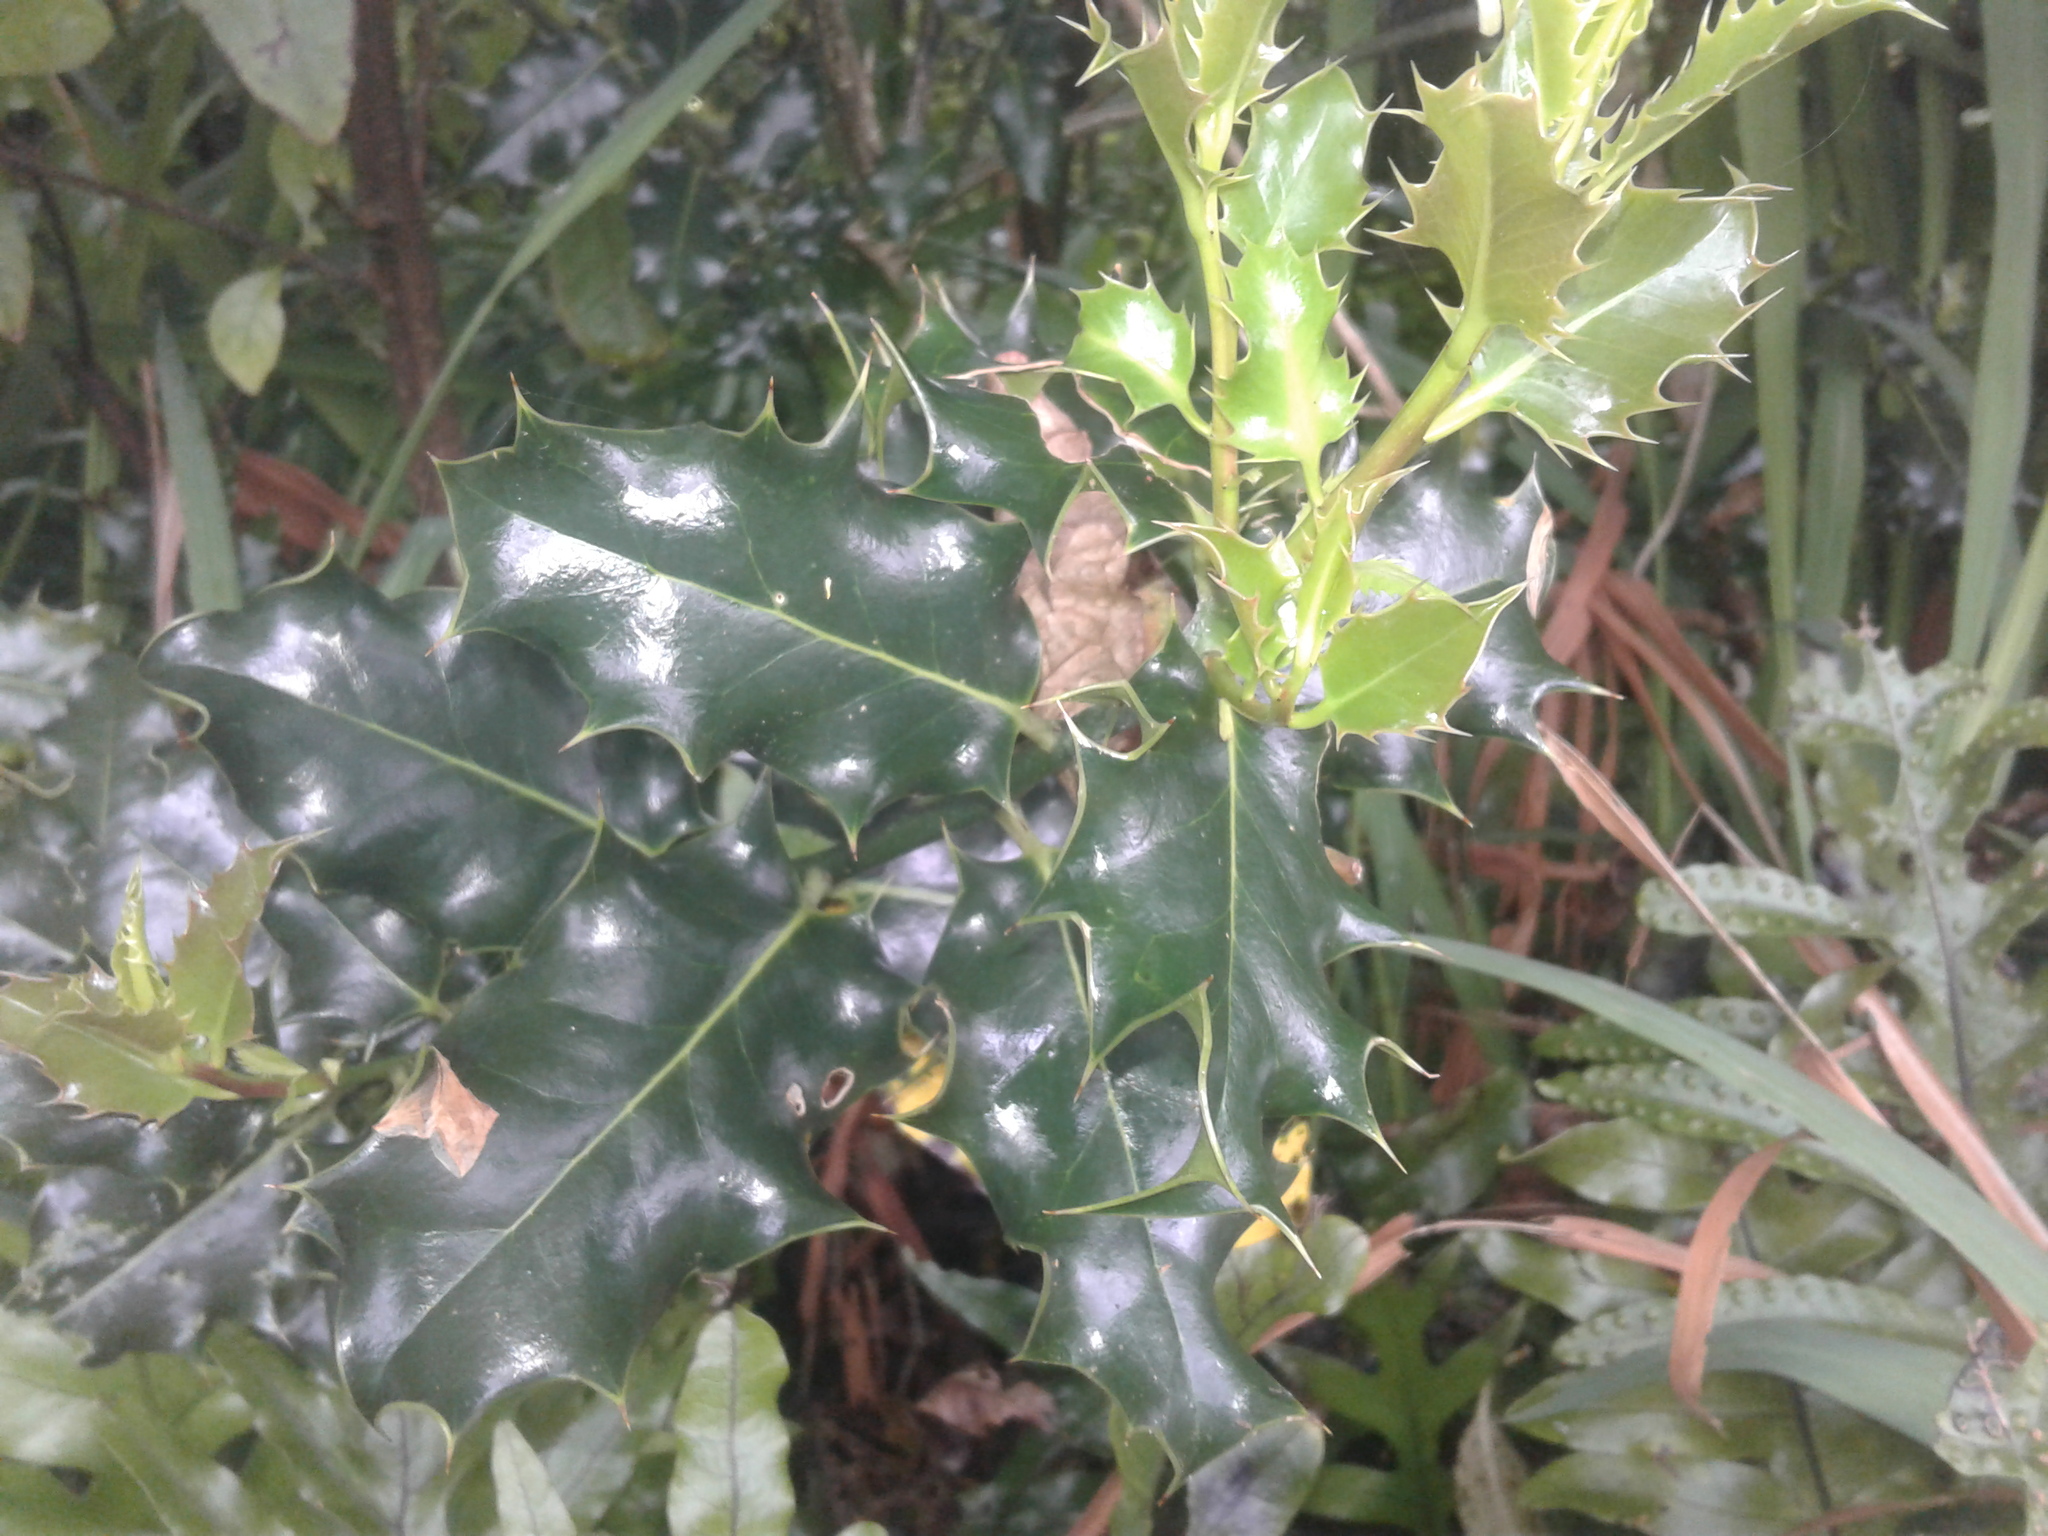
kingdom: Plantae
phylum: Tracheophyta
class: Magnoliopsida
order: Aquifoliales
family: Aquifoliaceae
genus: Ilex
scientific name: Ilex aquifolium
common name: English holly
